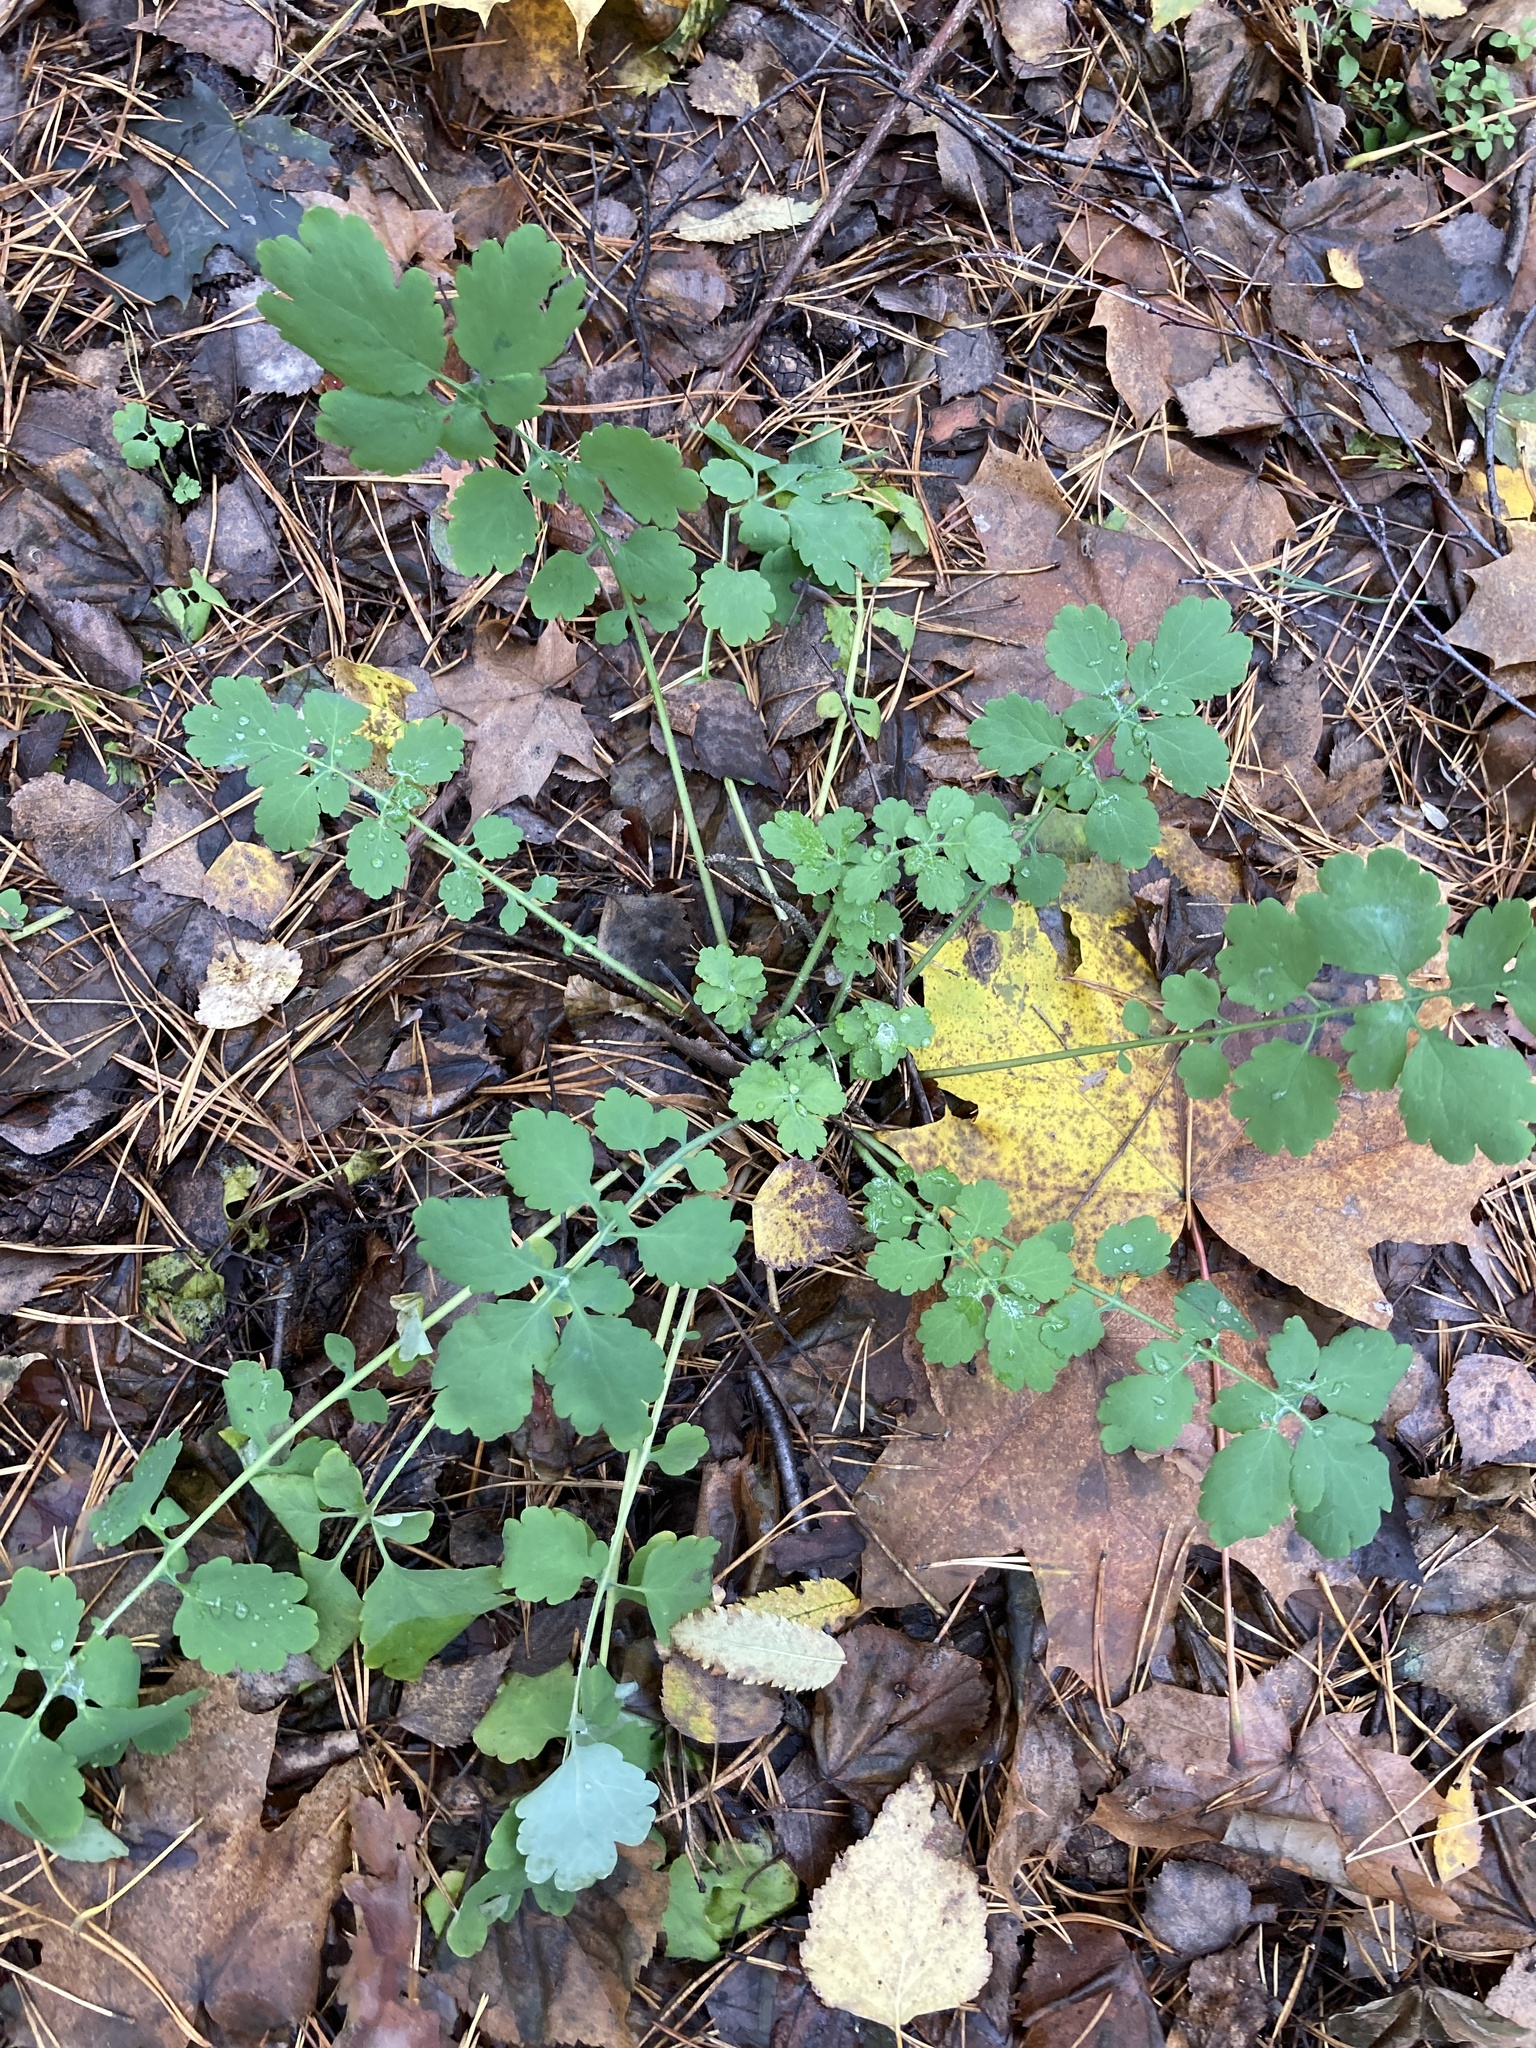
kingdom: Plantae
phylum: Tracheophyta
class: Magnoliopsida
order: Ranunculales
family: Papaveraceae
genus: Chelidonium
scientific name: Chelidonium majus
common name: Greater celandine
